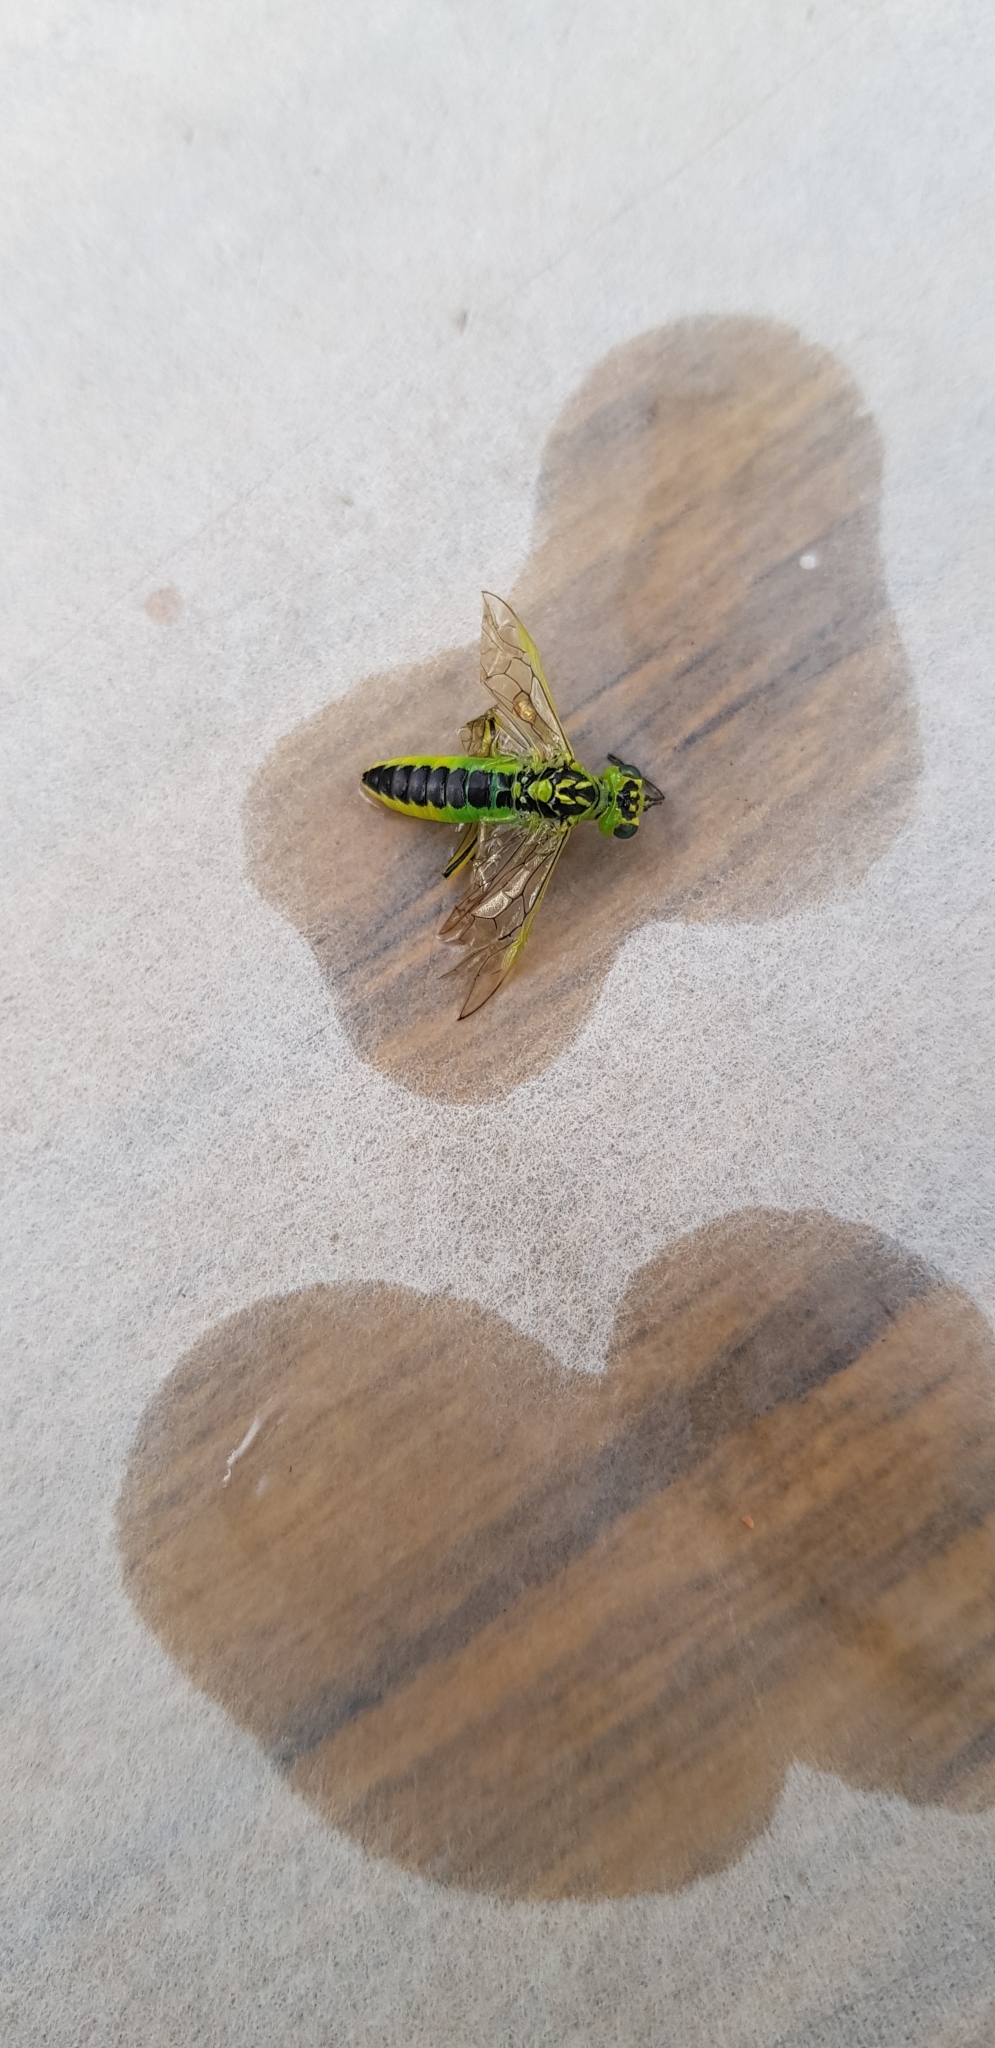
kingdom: Animalia
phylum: Arthropoda
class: Insecta
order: Hymenoptera
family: Tenthredinidae
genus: Rhogogaster
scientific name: Rhogogaster
